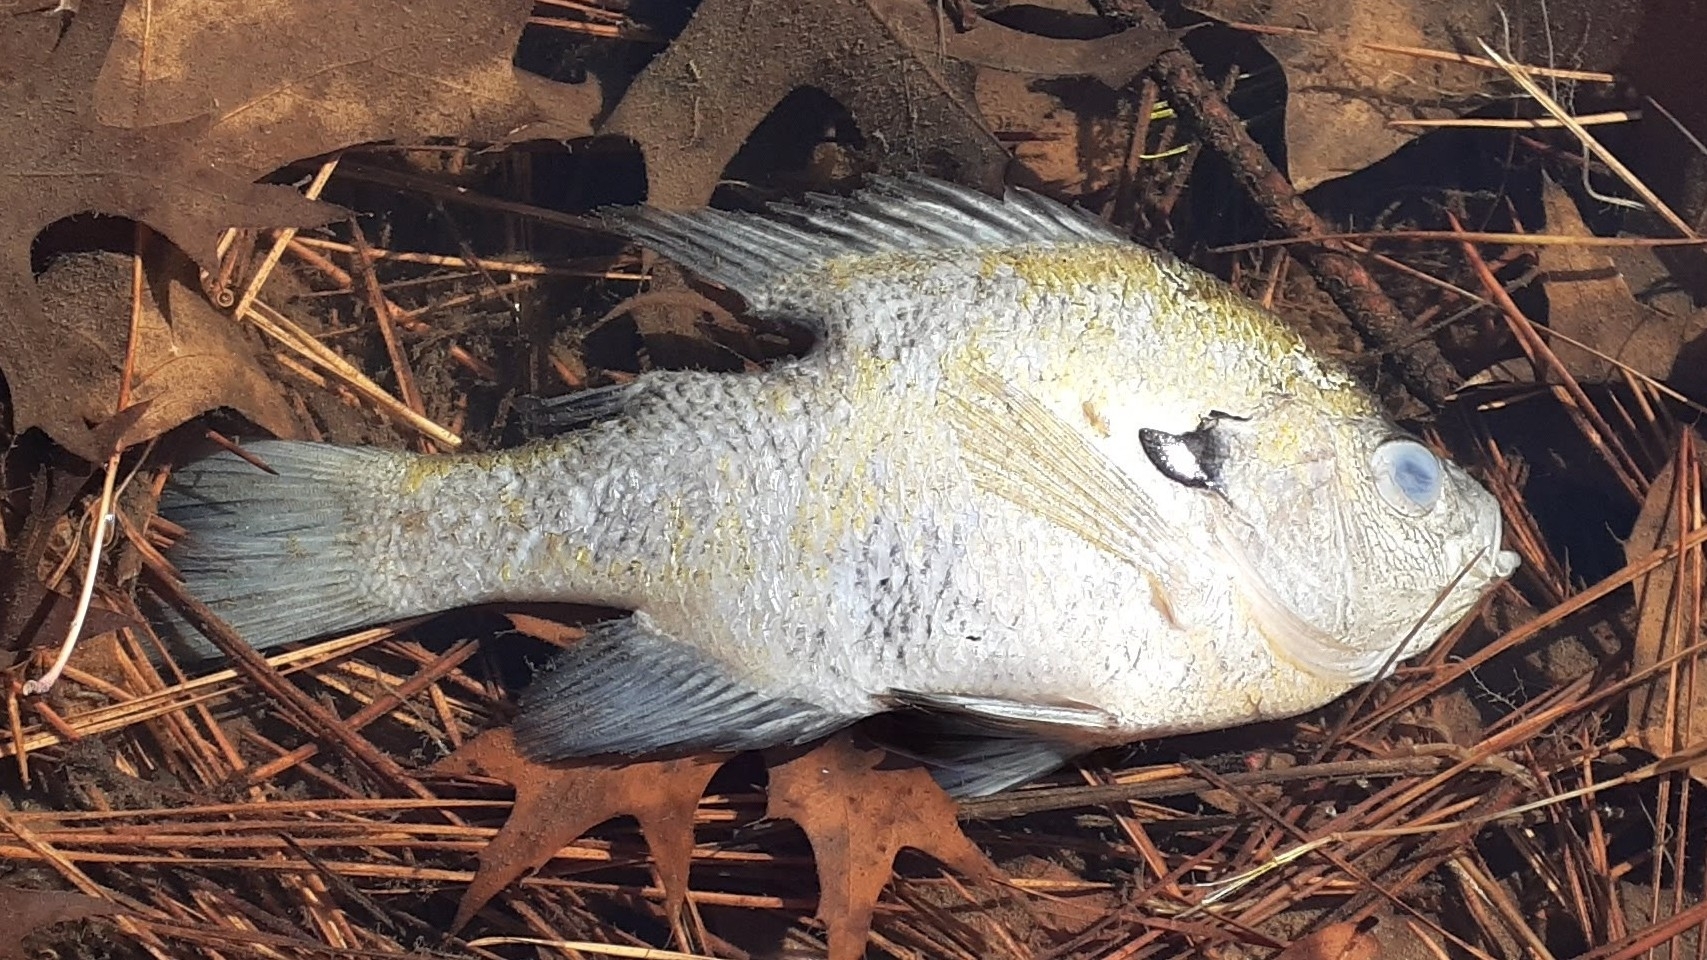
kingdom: Animalia
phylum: Chordata
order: Perciformes
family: Centrarchidae
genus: Lepomis
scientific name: Lepomis macrochirus
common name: Bluegill
